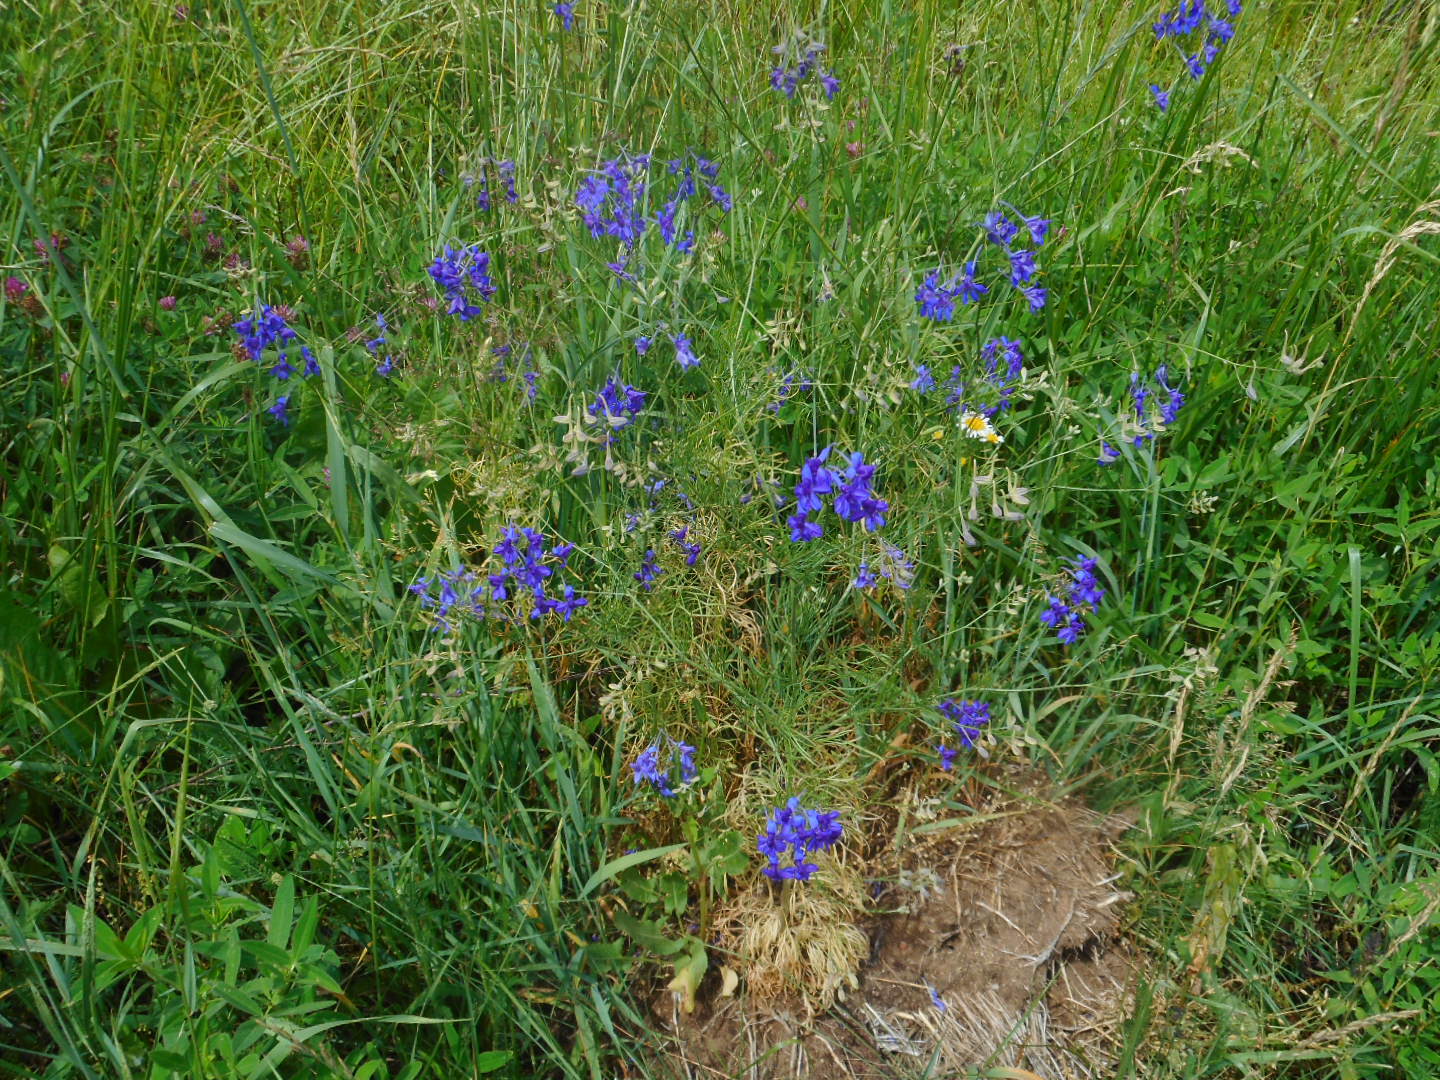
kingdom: Plantae
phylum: Tracheophyta
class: Magnoliopsida
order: Ranunculales
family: Ranunculaceae
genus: Delphinium
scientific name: Delphinium consolida
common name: Branching larkspur
